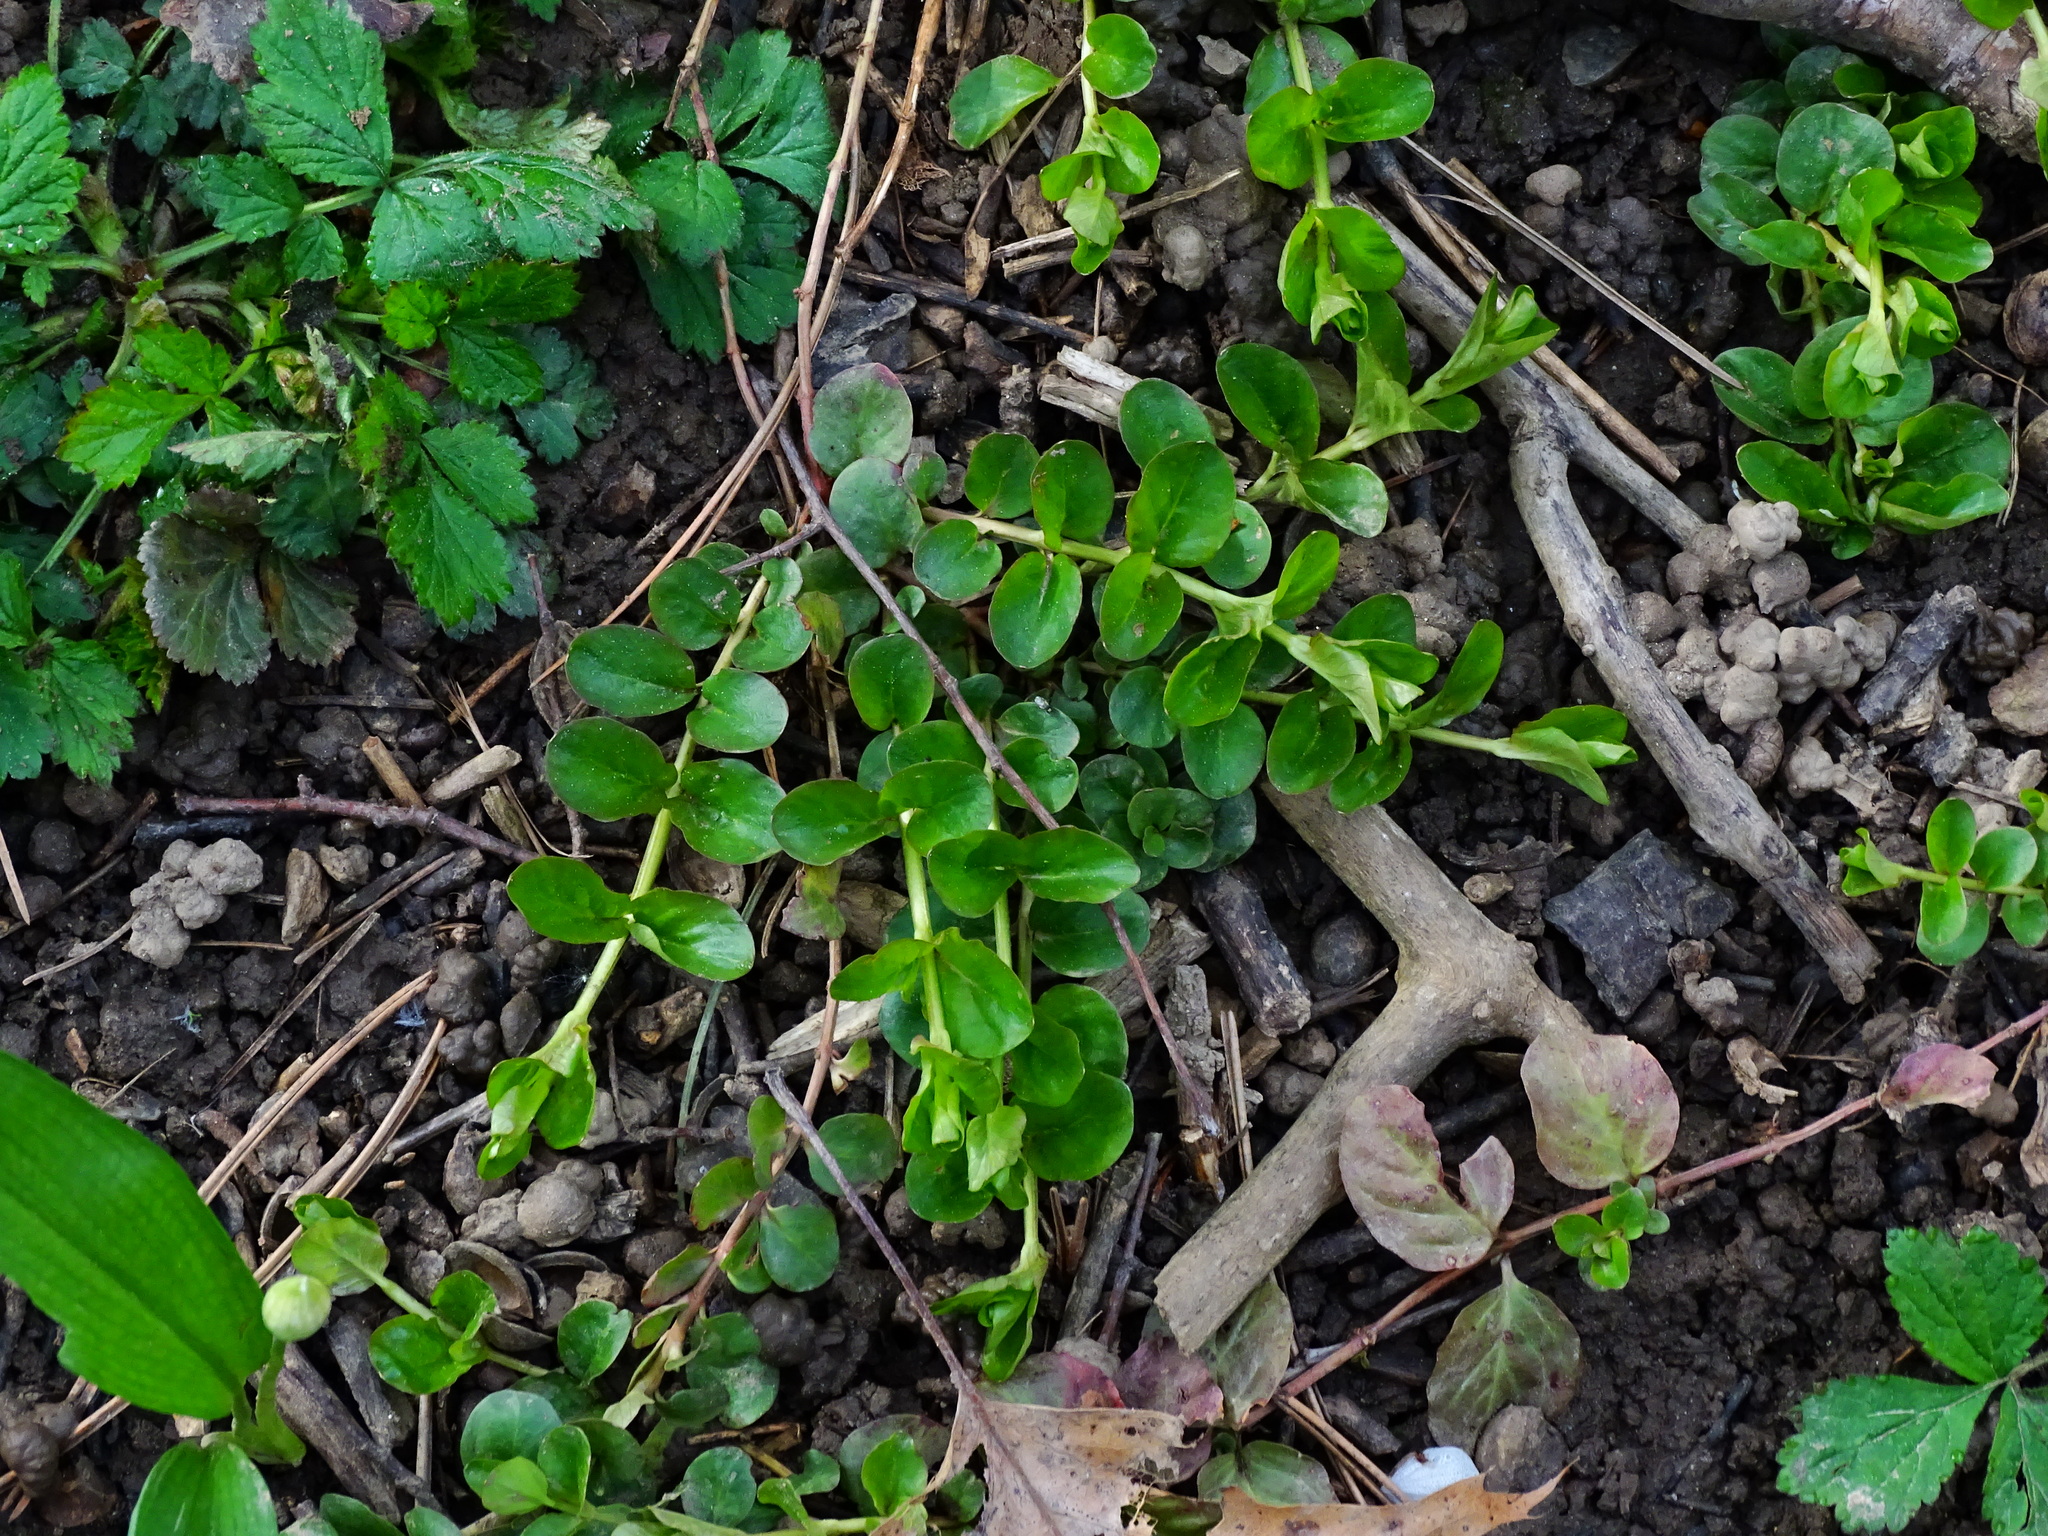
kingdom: Plantae
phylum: Tracheophyta
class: Magnoliopsida
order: Ericales
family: Primulaceae
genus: Lysimachia
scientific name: Lysimachia nummularia
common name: Moneywort
